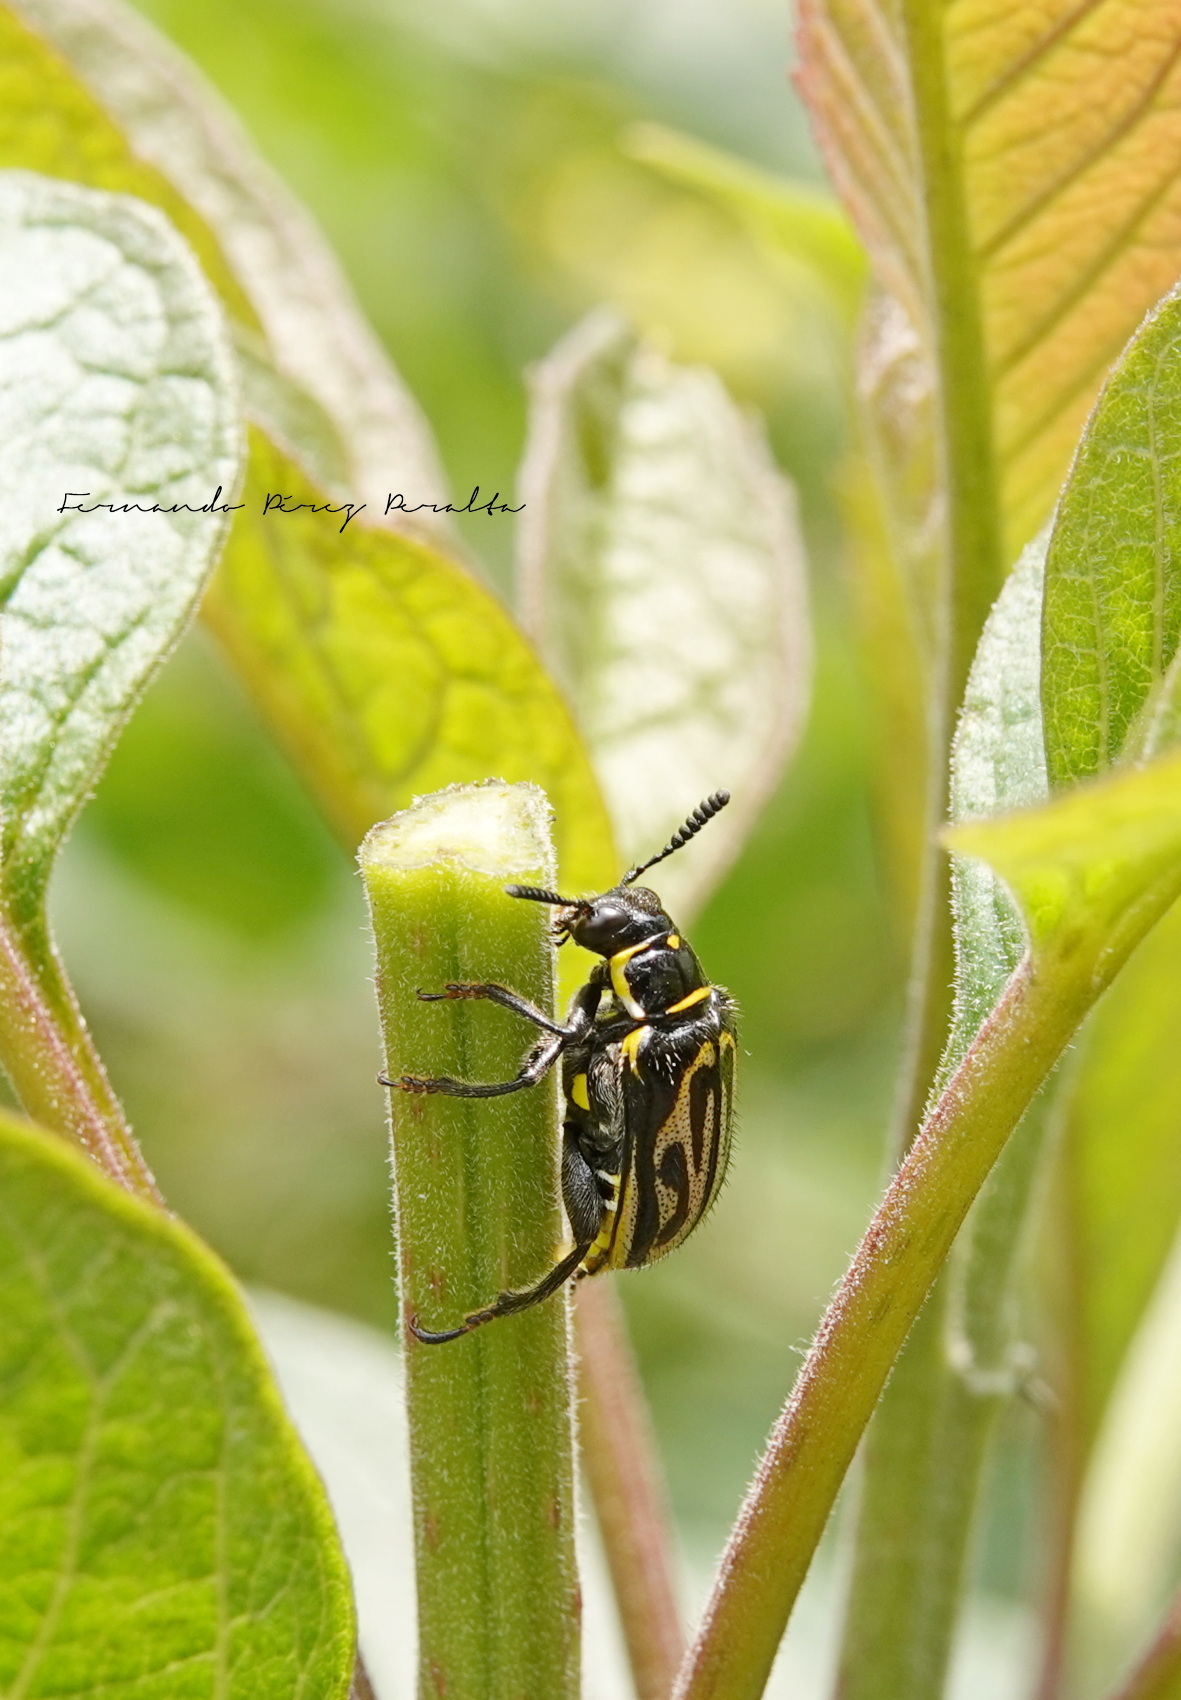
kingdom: Animalia
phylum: Arthropoda
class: Insecta
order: Coleoptera
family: Megalopodidae
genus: Mastostethus
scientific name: Mastostethus hieroglyphicus
